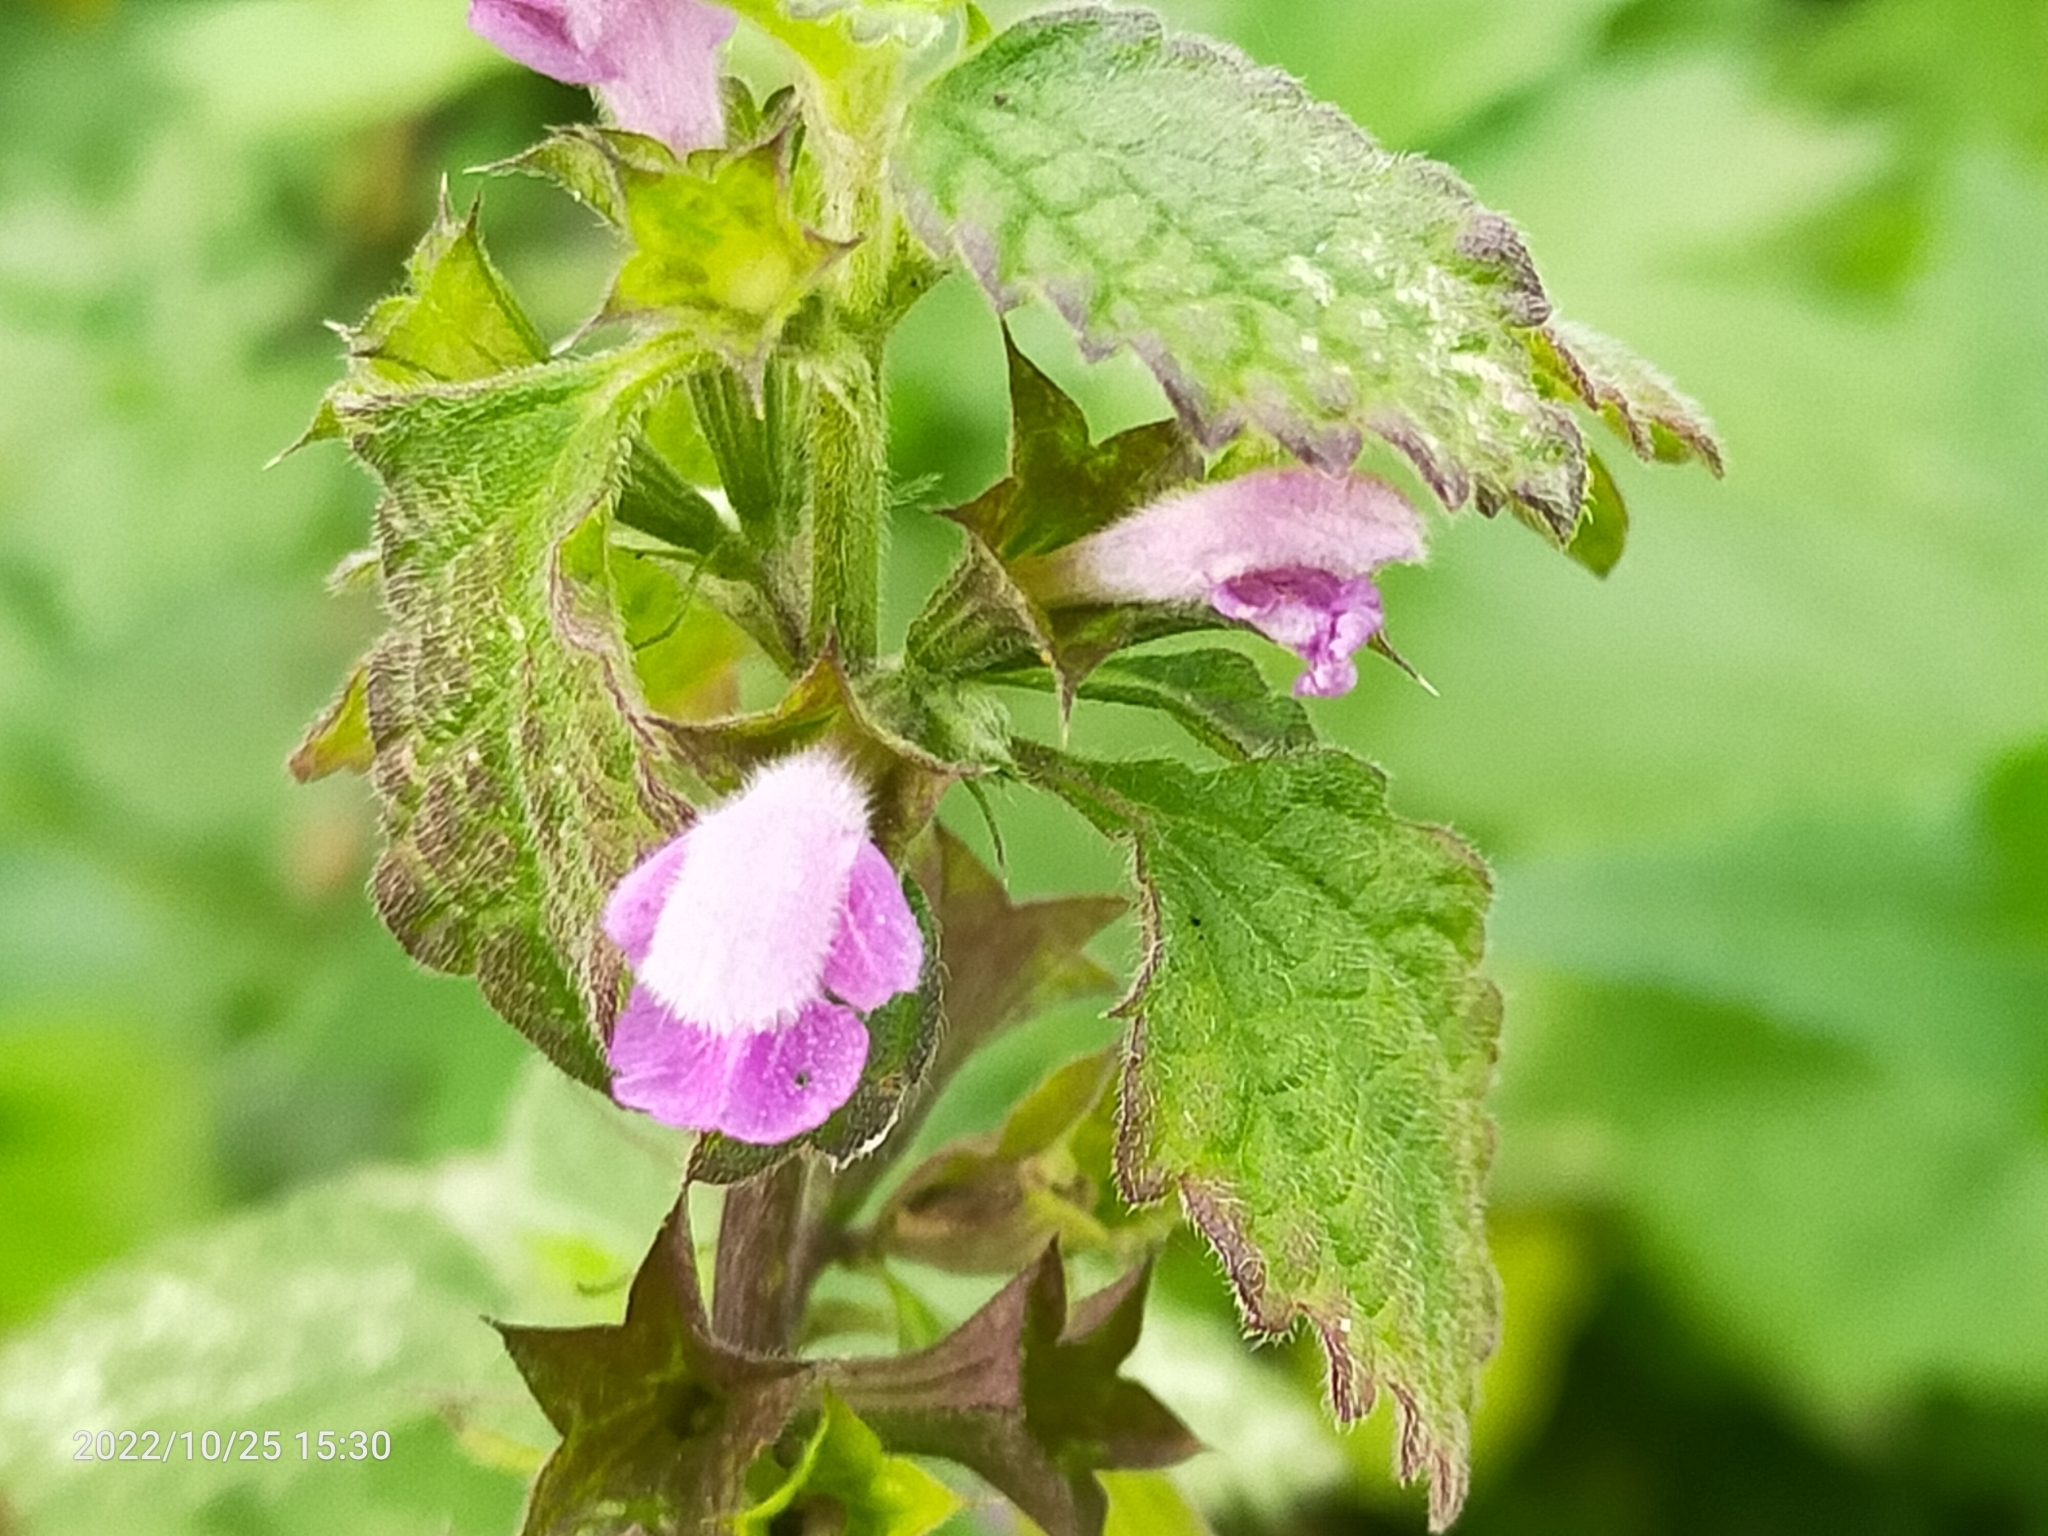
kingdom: Plantae
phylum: Tracheophyta
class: Magnoliopsida
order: Lamiales
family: Lamiaceae
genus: Ballota
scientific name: Ballota nigra
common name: Black horehound
